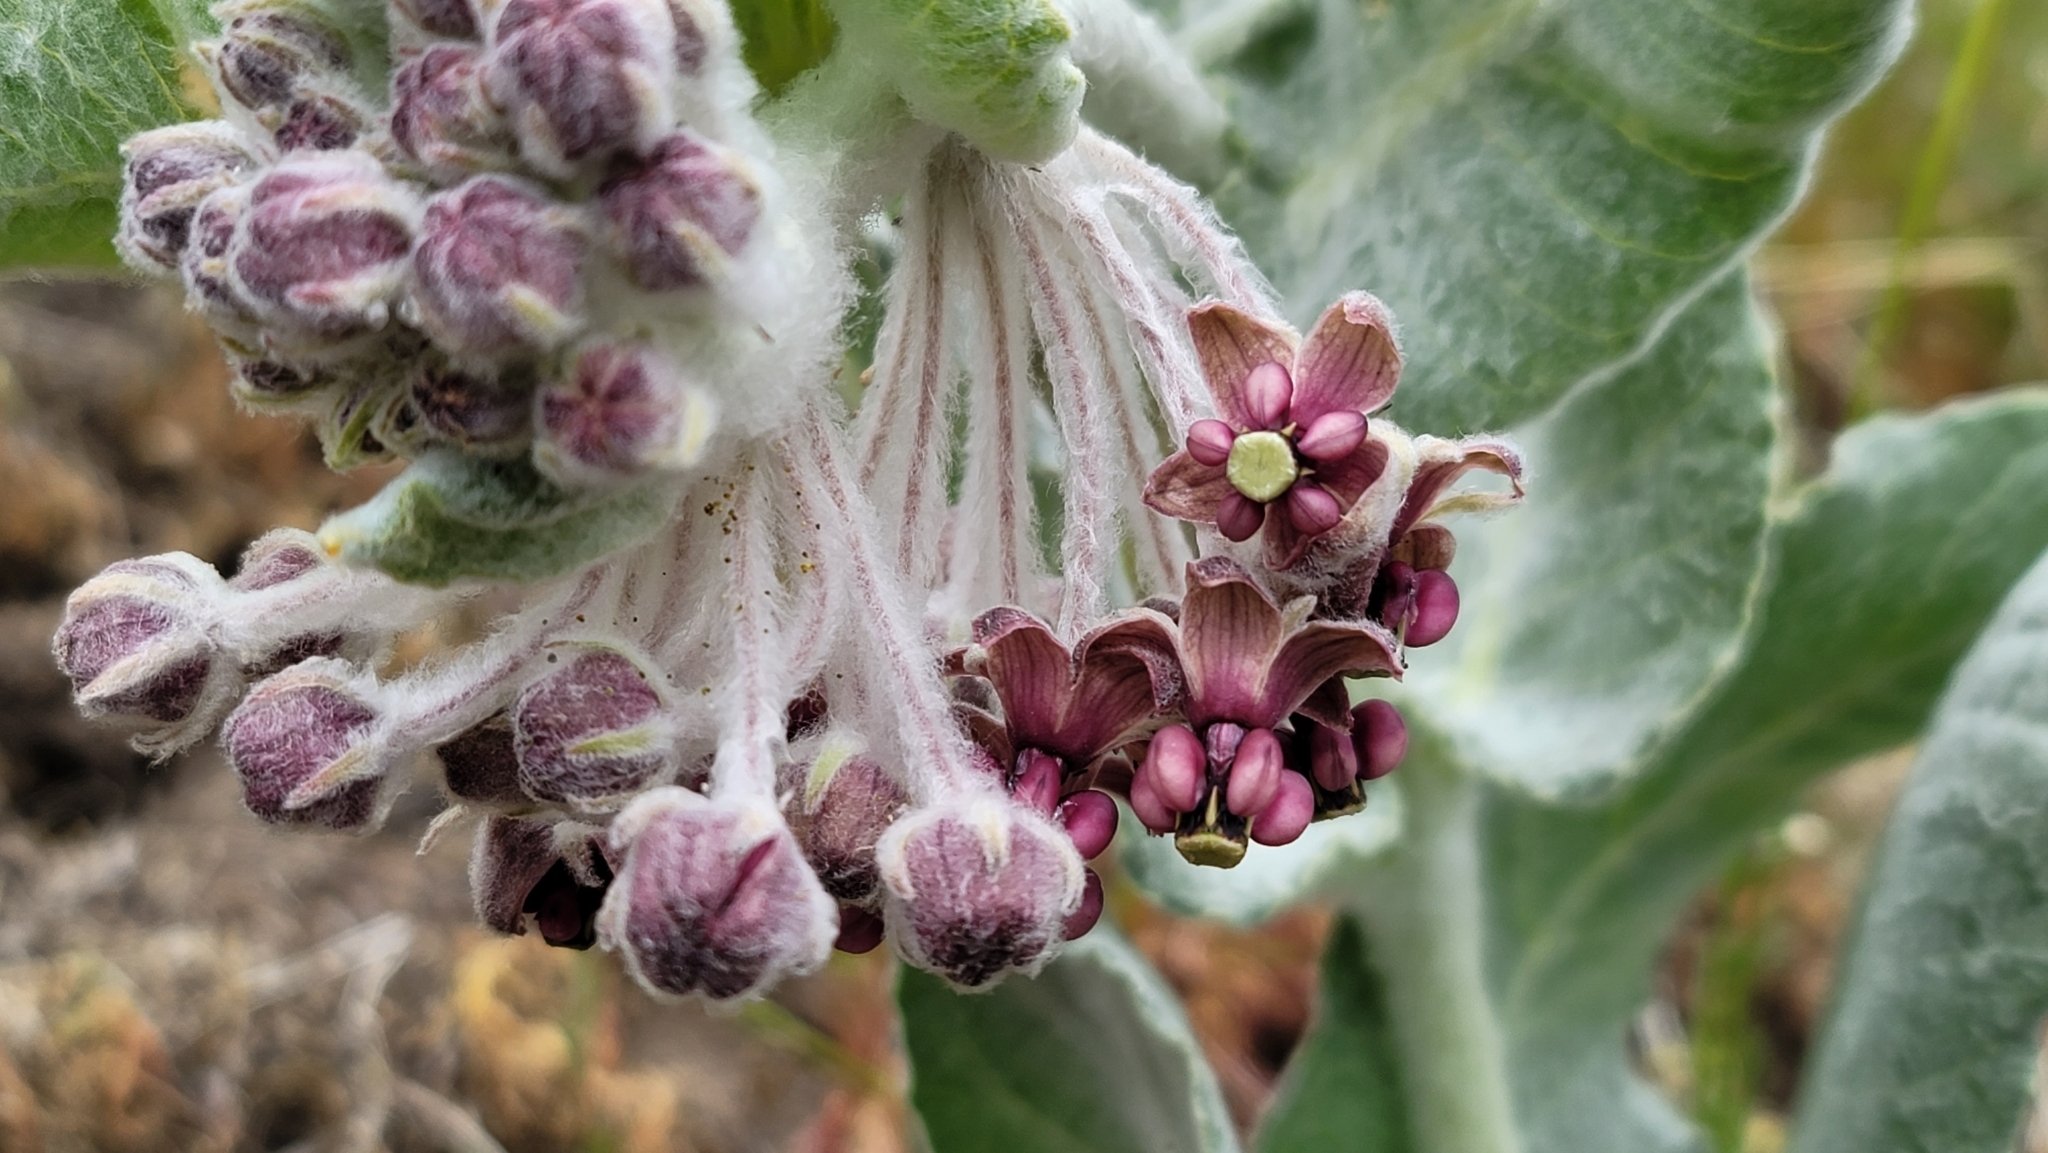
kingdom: Plantae
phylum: Tracheophyta
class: Magnoliopsida
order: Gentianales
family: Apocynaceae
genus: Asclepias
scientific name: Asclepias californica
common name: California milkweed
